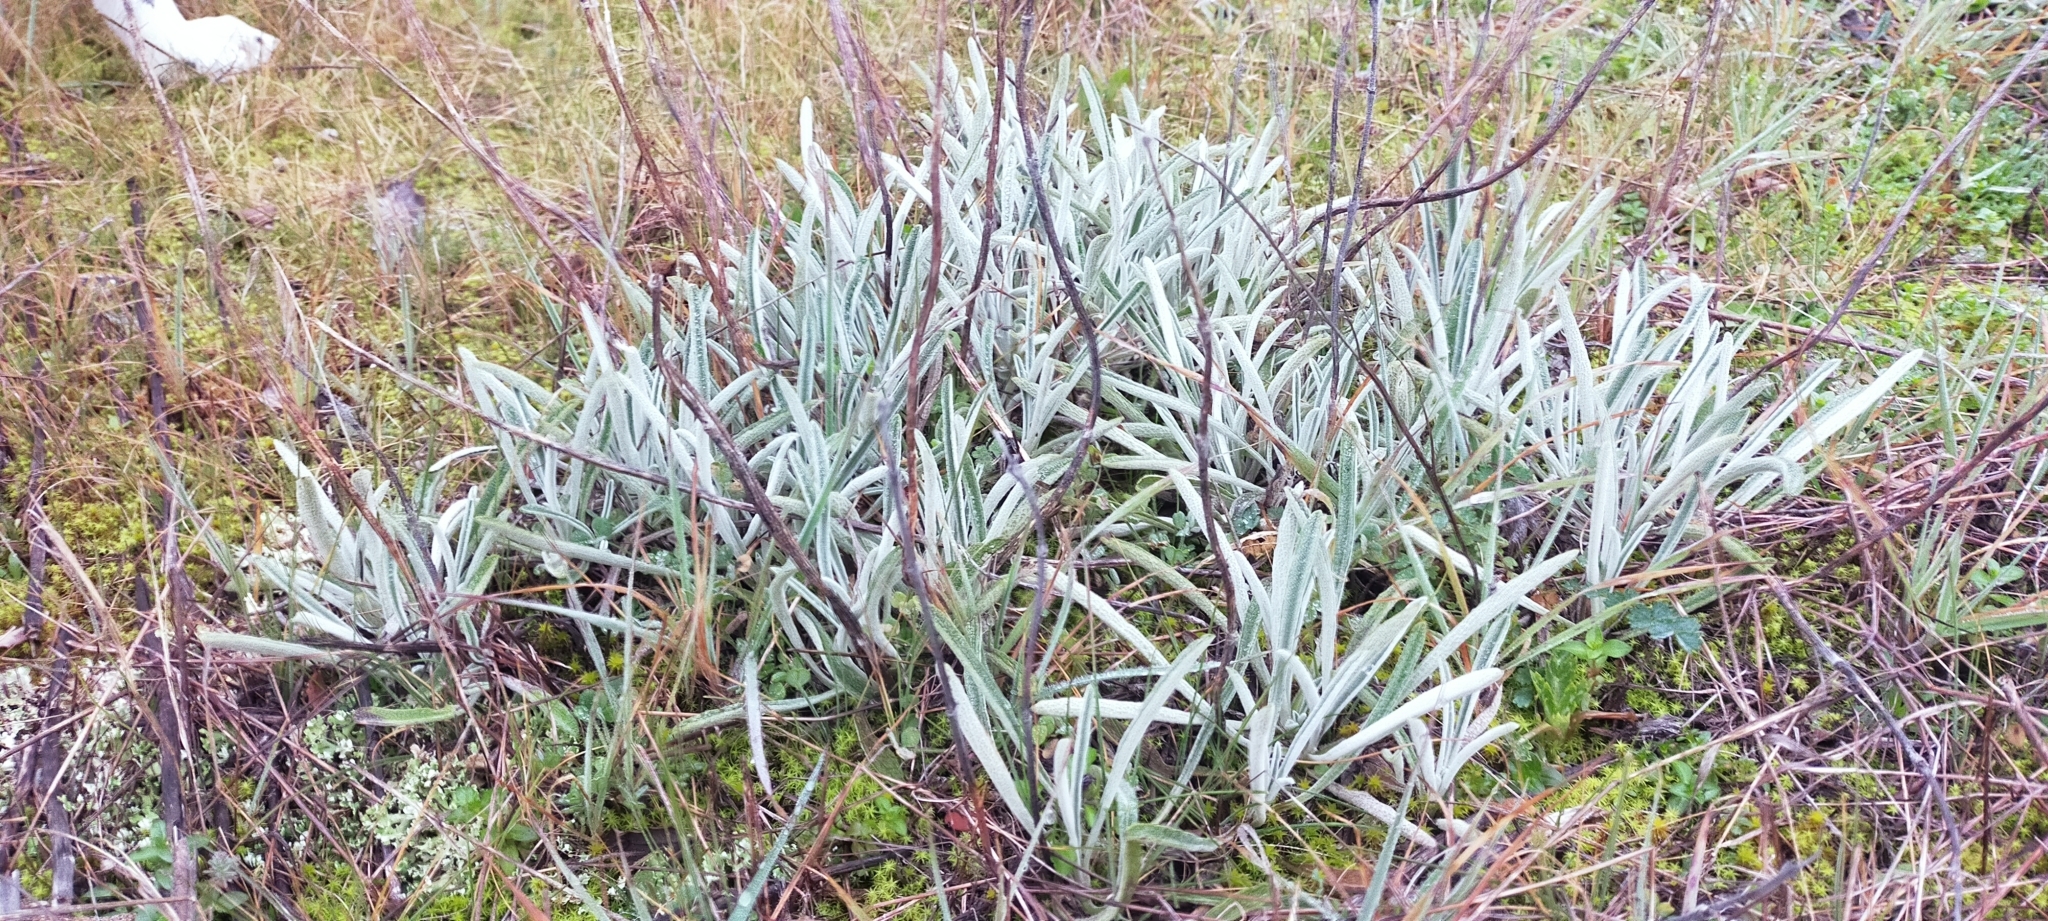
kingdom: Plantae
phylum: Tracheophyta
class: Magnoliopsida
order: Lamiales
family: Lamiaceae
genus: Phlomis
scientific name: Phlomis lychnitis
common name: Lampwickplant
